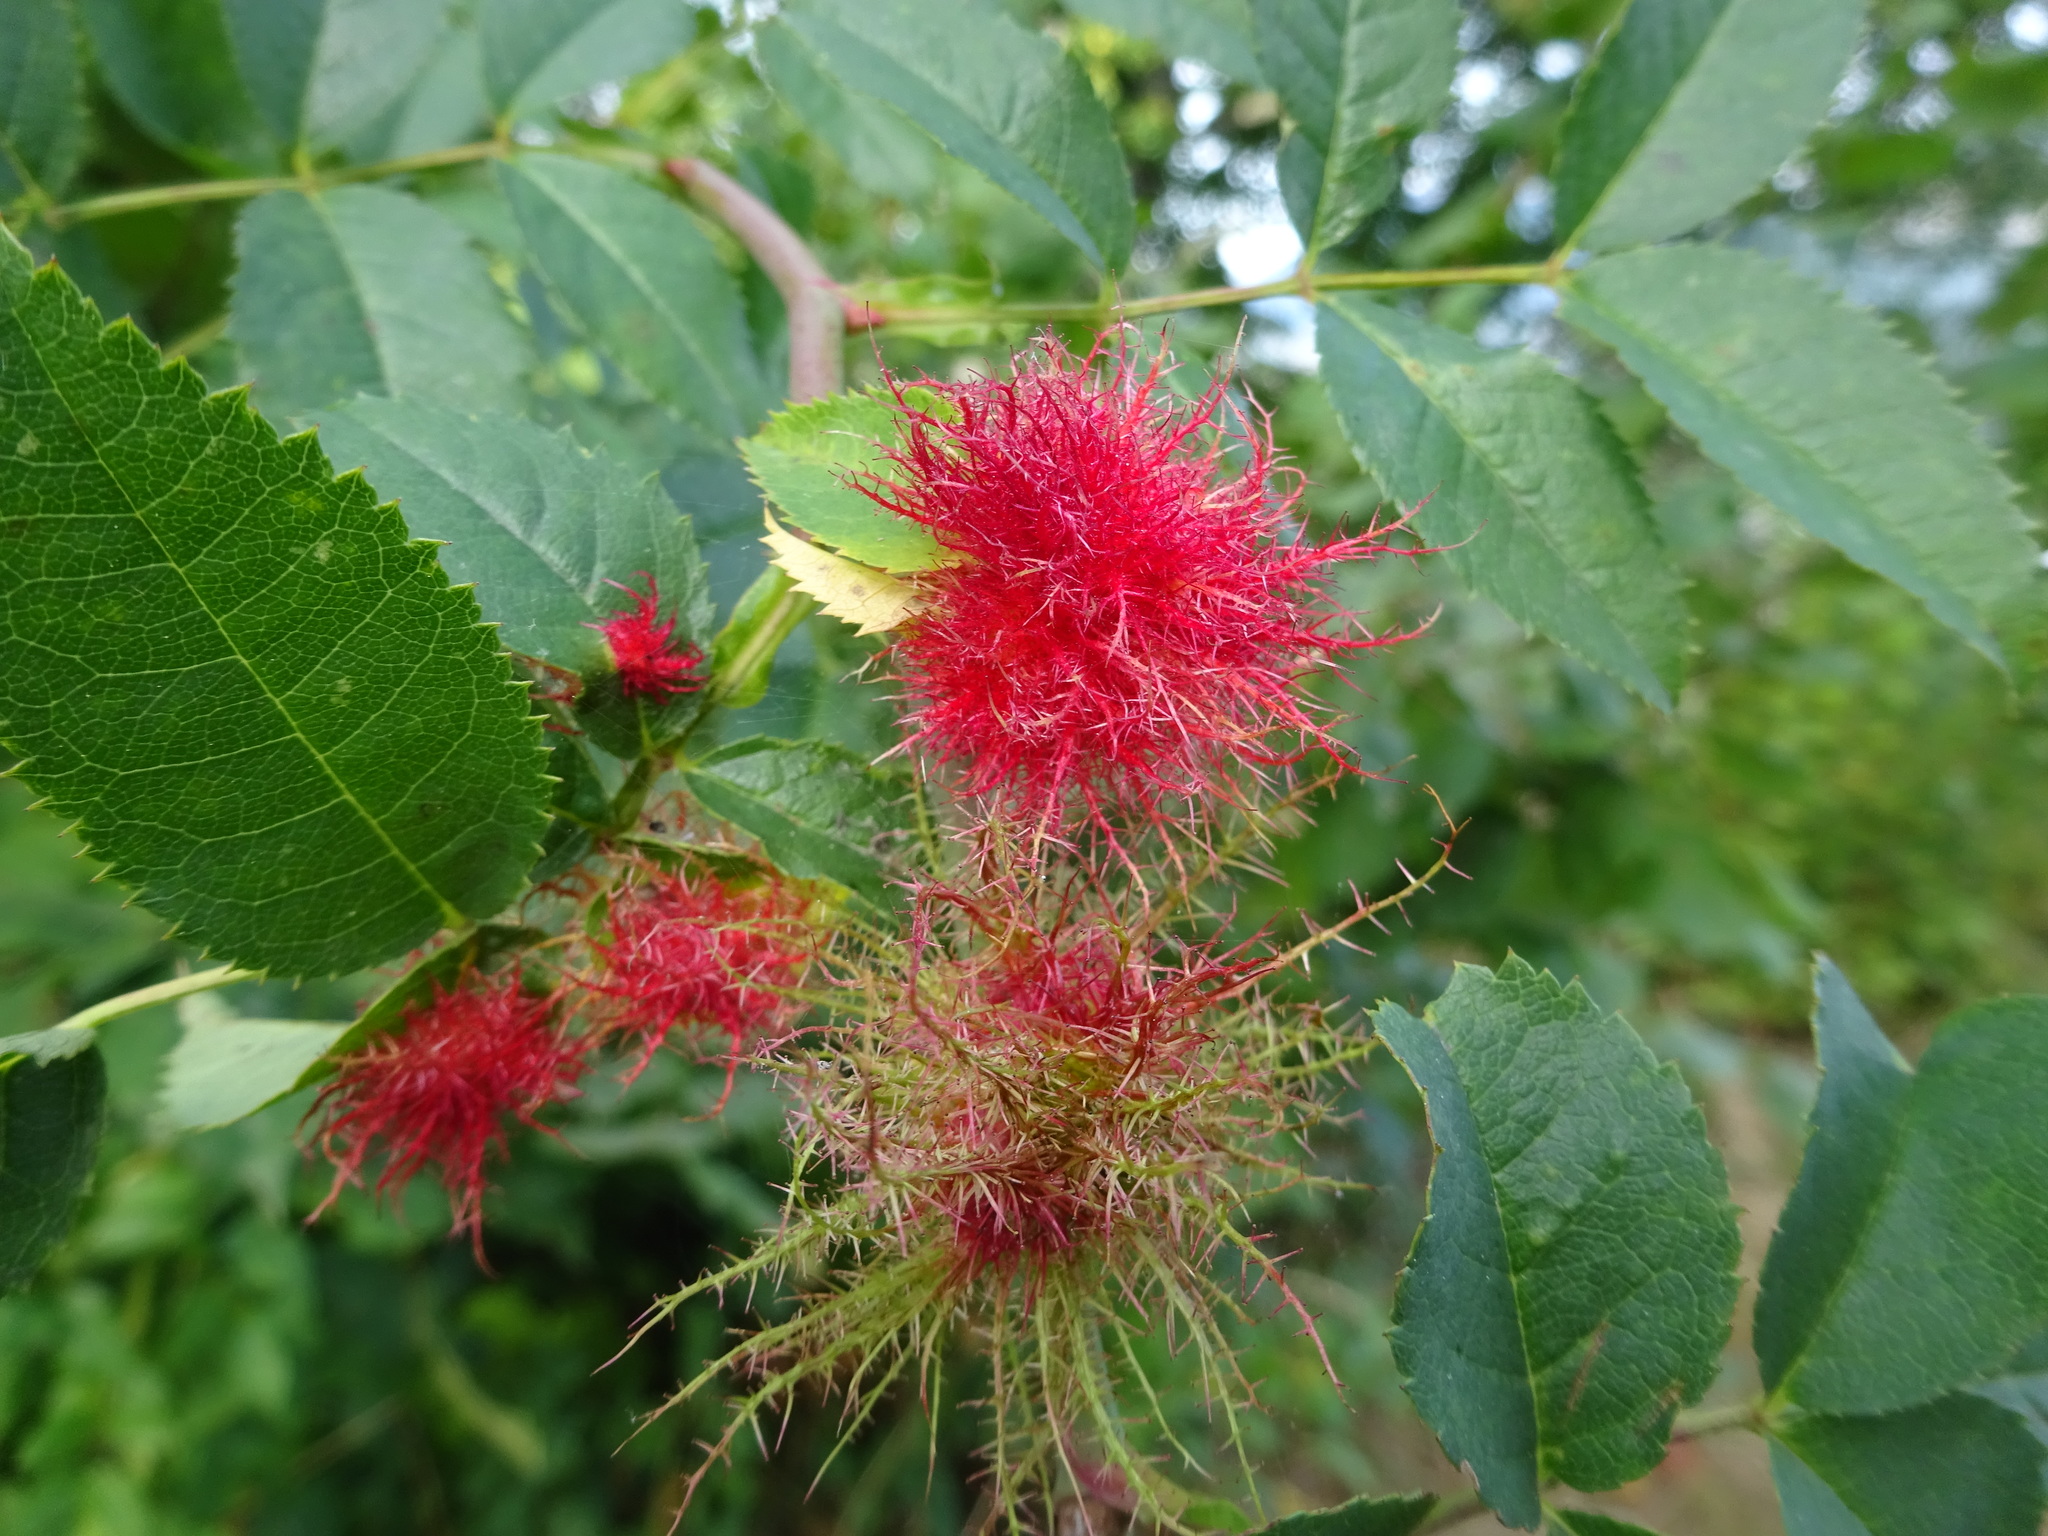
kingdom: Animalia
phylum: Arthropoda
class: Insecta
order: Hymenoptera
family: Cynipidae
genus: Diplolepis
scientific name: Diplolepis rosae
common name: Bedeguar gall
